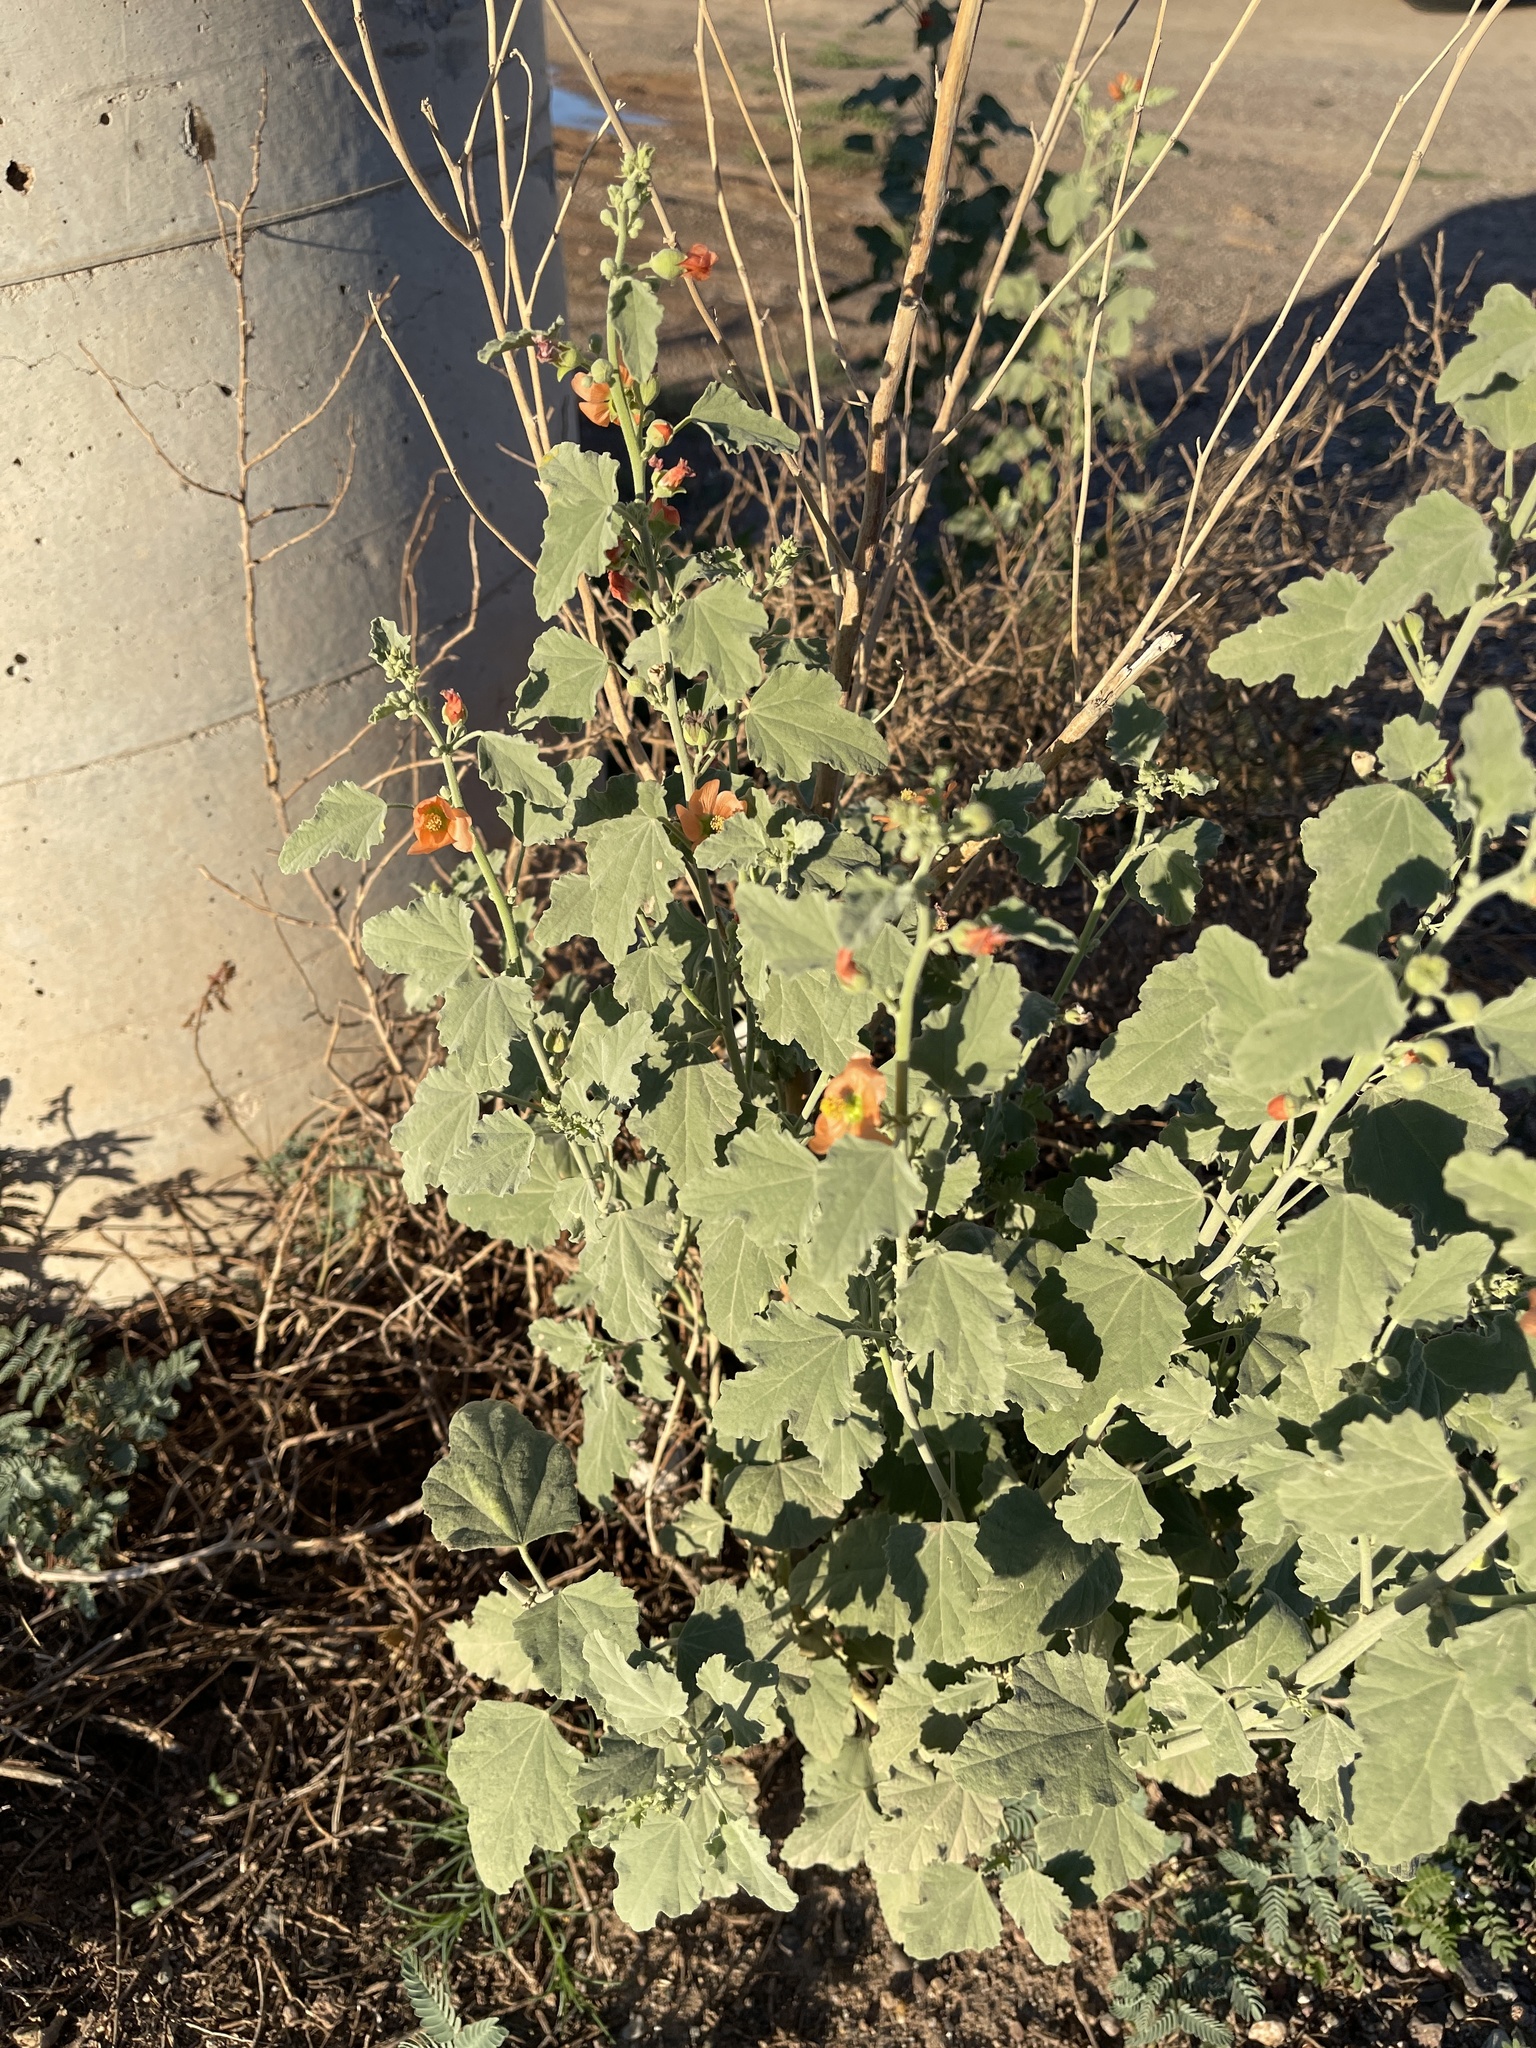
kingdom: Plantae
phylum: Tracheophyta
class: Magnoliopsida
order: Malvales
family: Malvaceae
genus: Sphaeralcea
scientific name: Sphaeralcea incana
